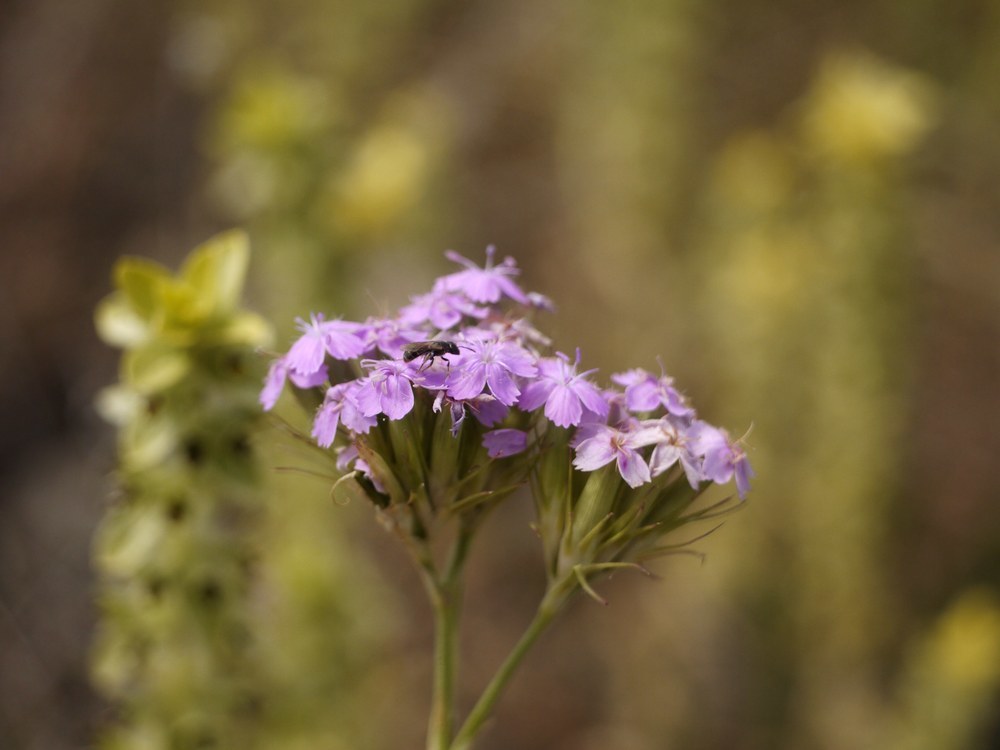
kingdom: Plantae
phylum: Tracheophyta
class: Magnoliopsida
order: Caryophyllales
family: Caryophyllaceae
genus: Dianthus
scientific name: Dianthus pseudarmeria
